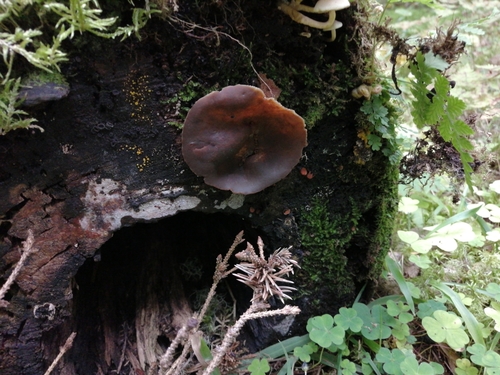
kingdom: Fungi
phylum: Ascomycota
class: Pezizomycetes
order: Pezizales
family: Pezizaceae
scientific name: Pezizaceae
